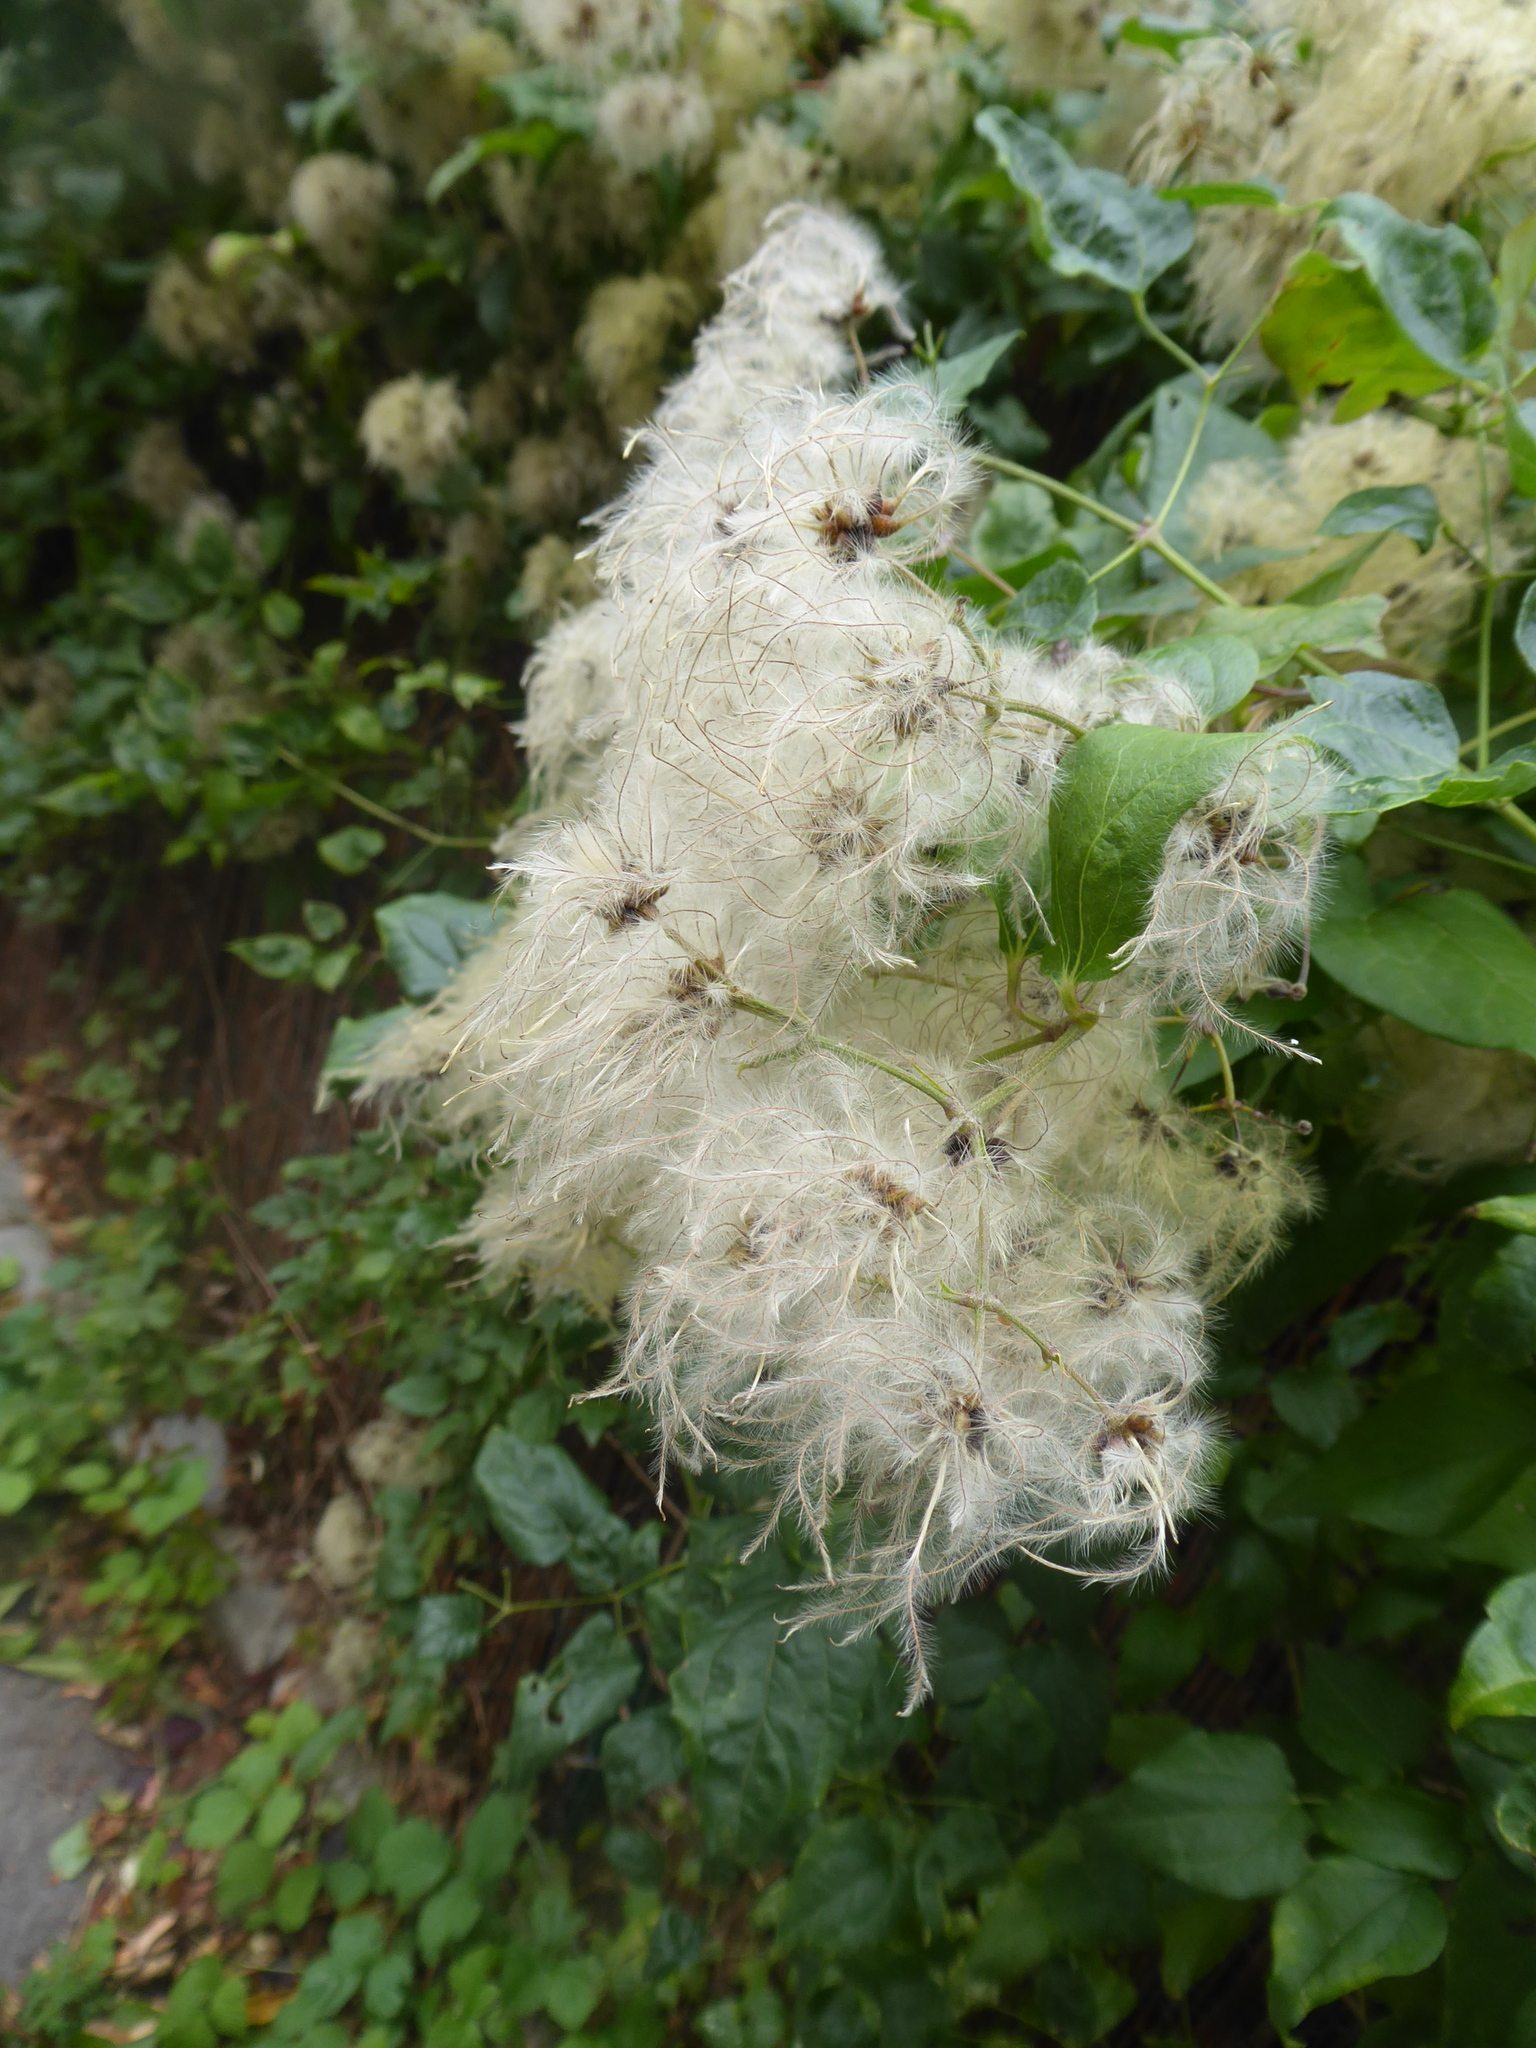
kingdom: Plantae
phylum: Tracheophyta
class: Magnoliopsida
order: Ranunculales
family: Ranunculaceae
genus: Clematis
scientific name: Clematis vitalba
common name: Evergreen clematis
